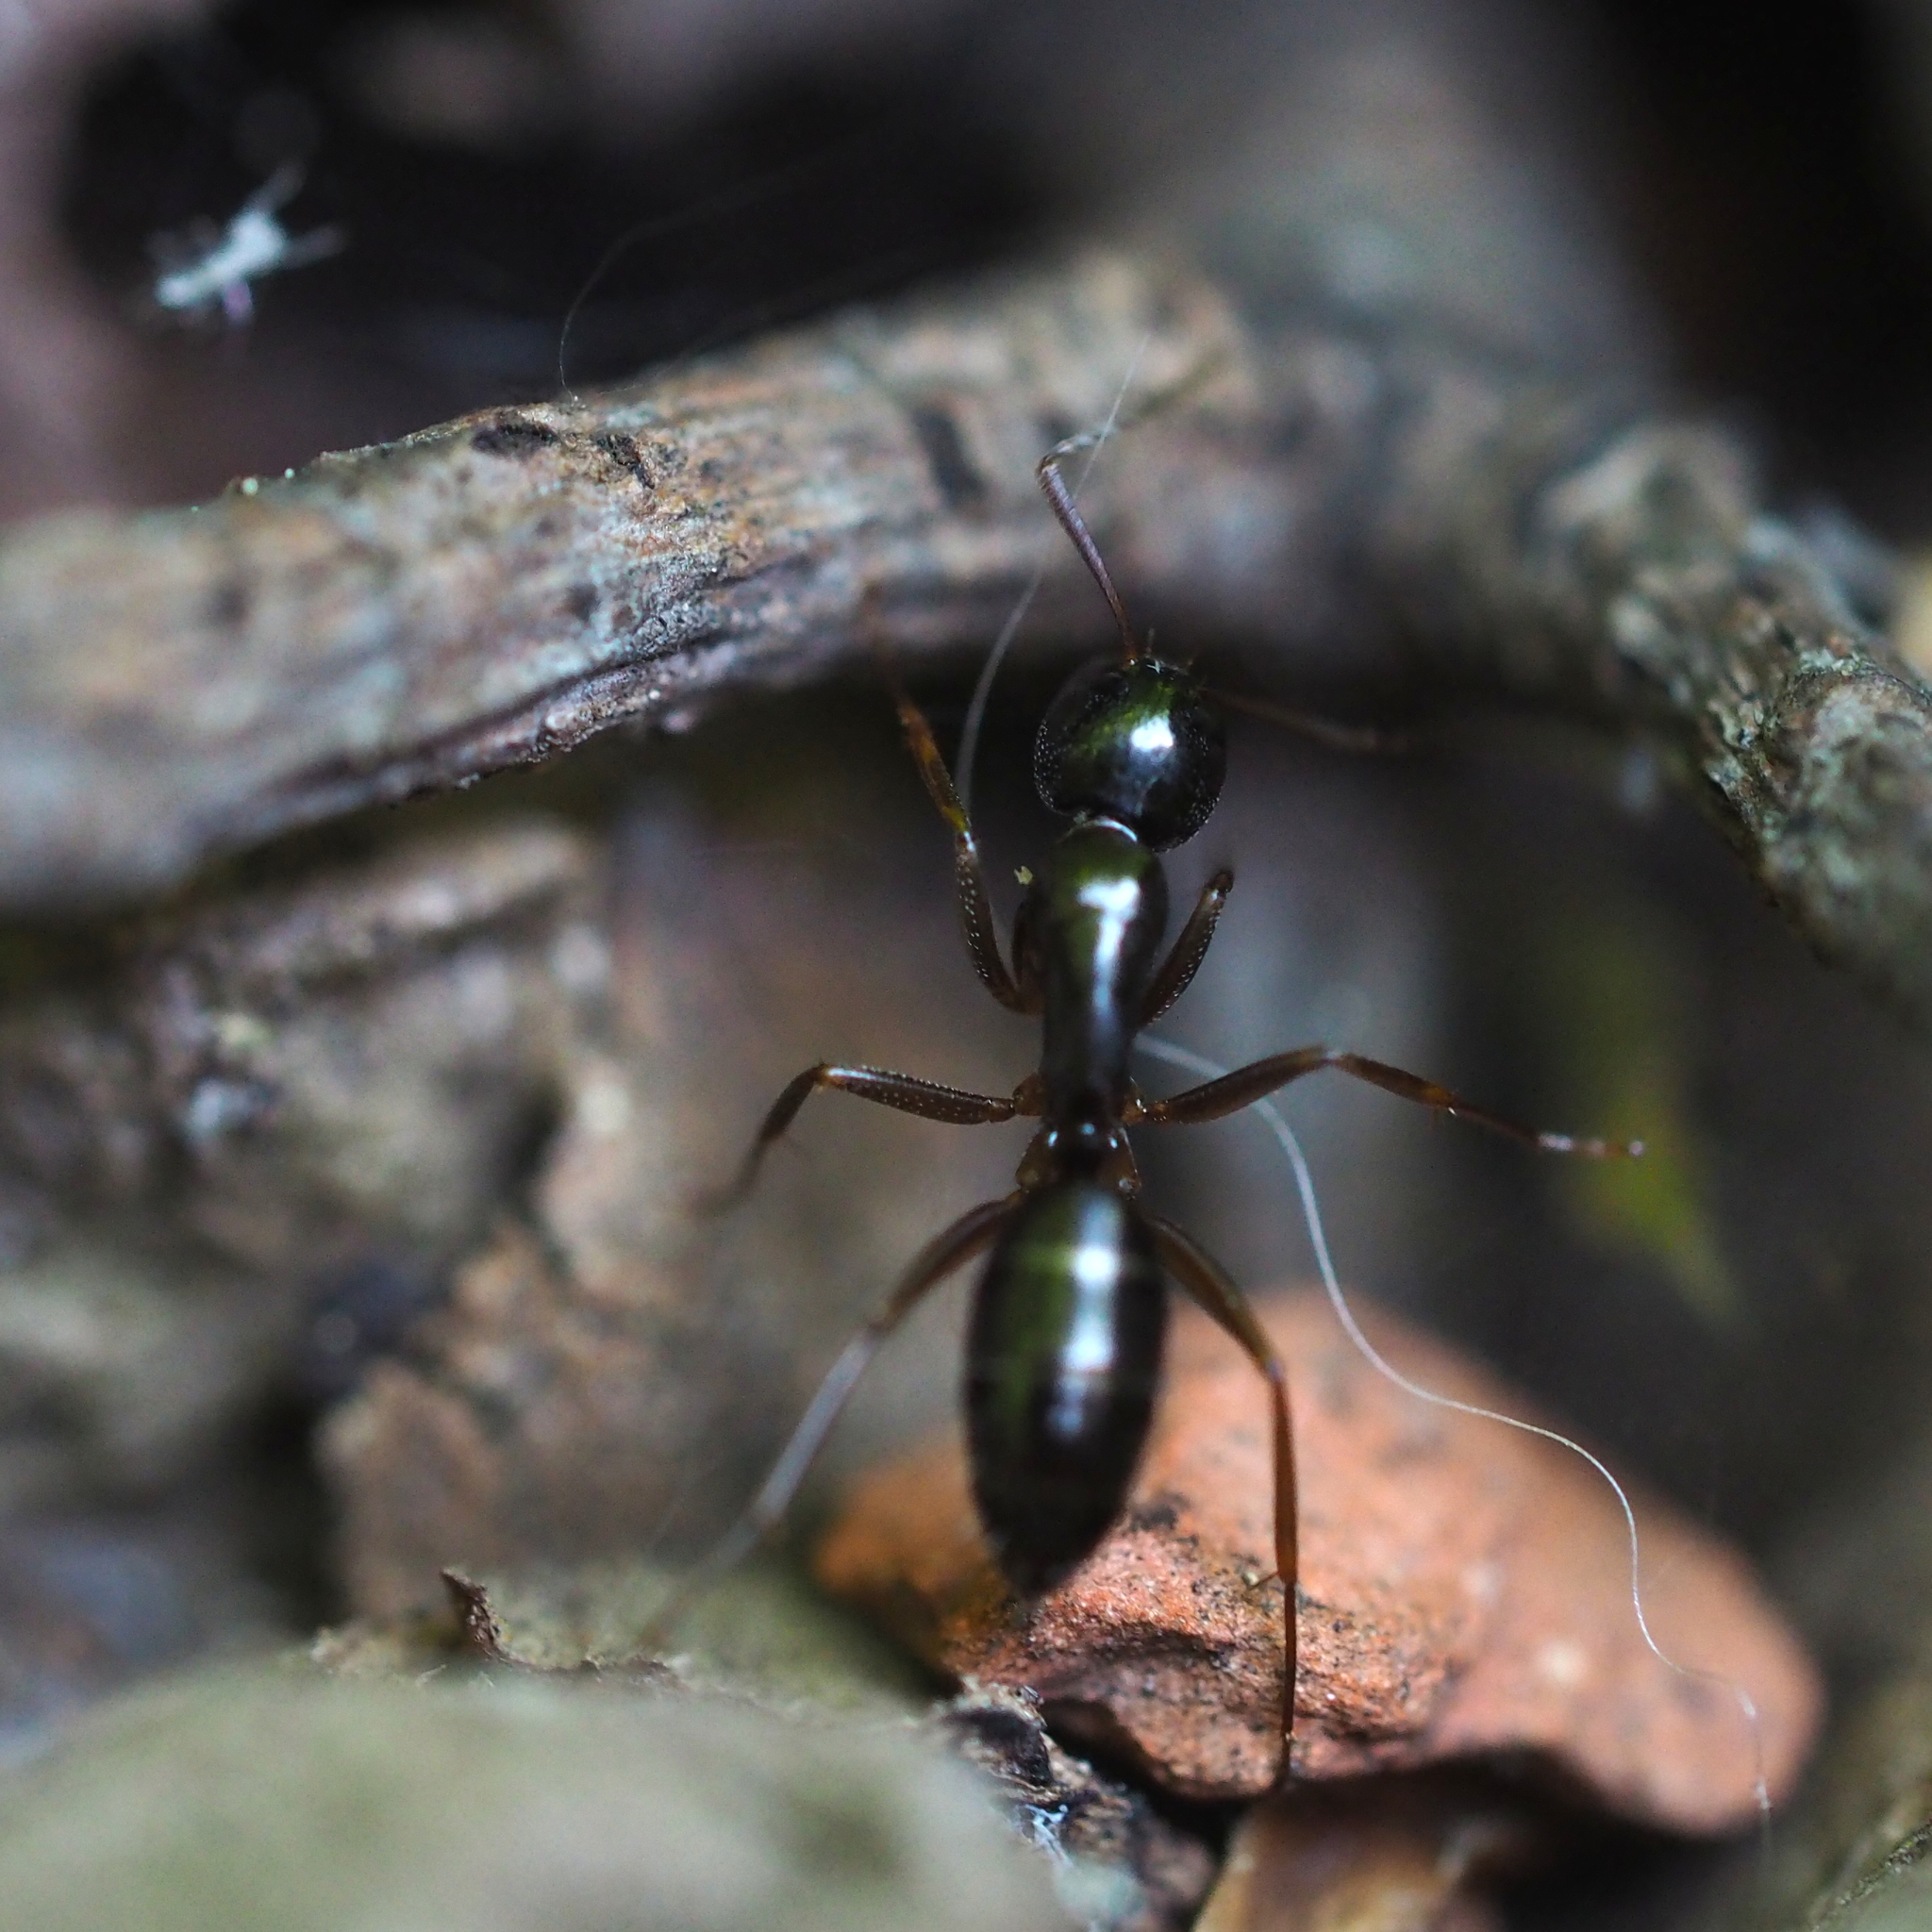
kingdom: Animalia
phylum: Arthropoda
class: Insecta
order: Hymenoptera
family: Formicidae
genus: Camponotus
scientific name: Camponotus fallax
